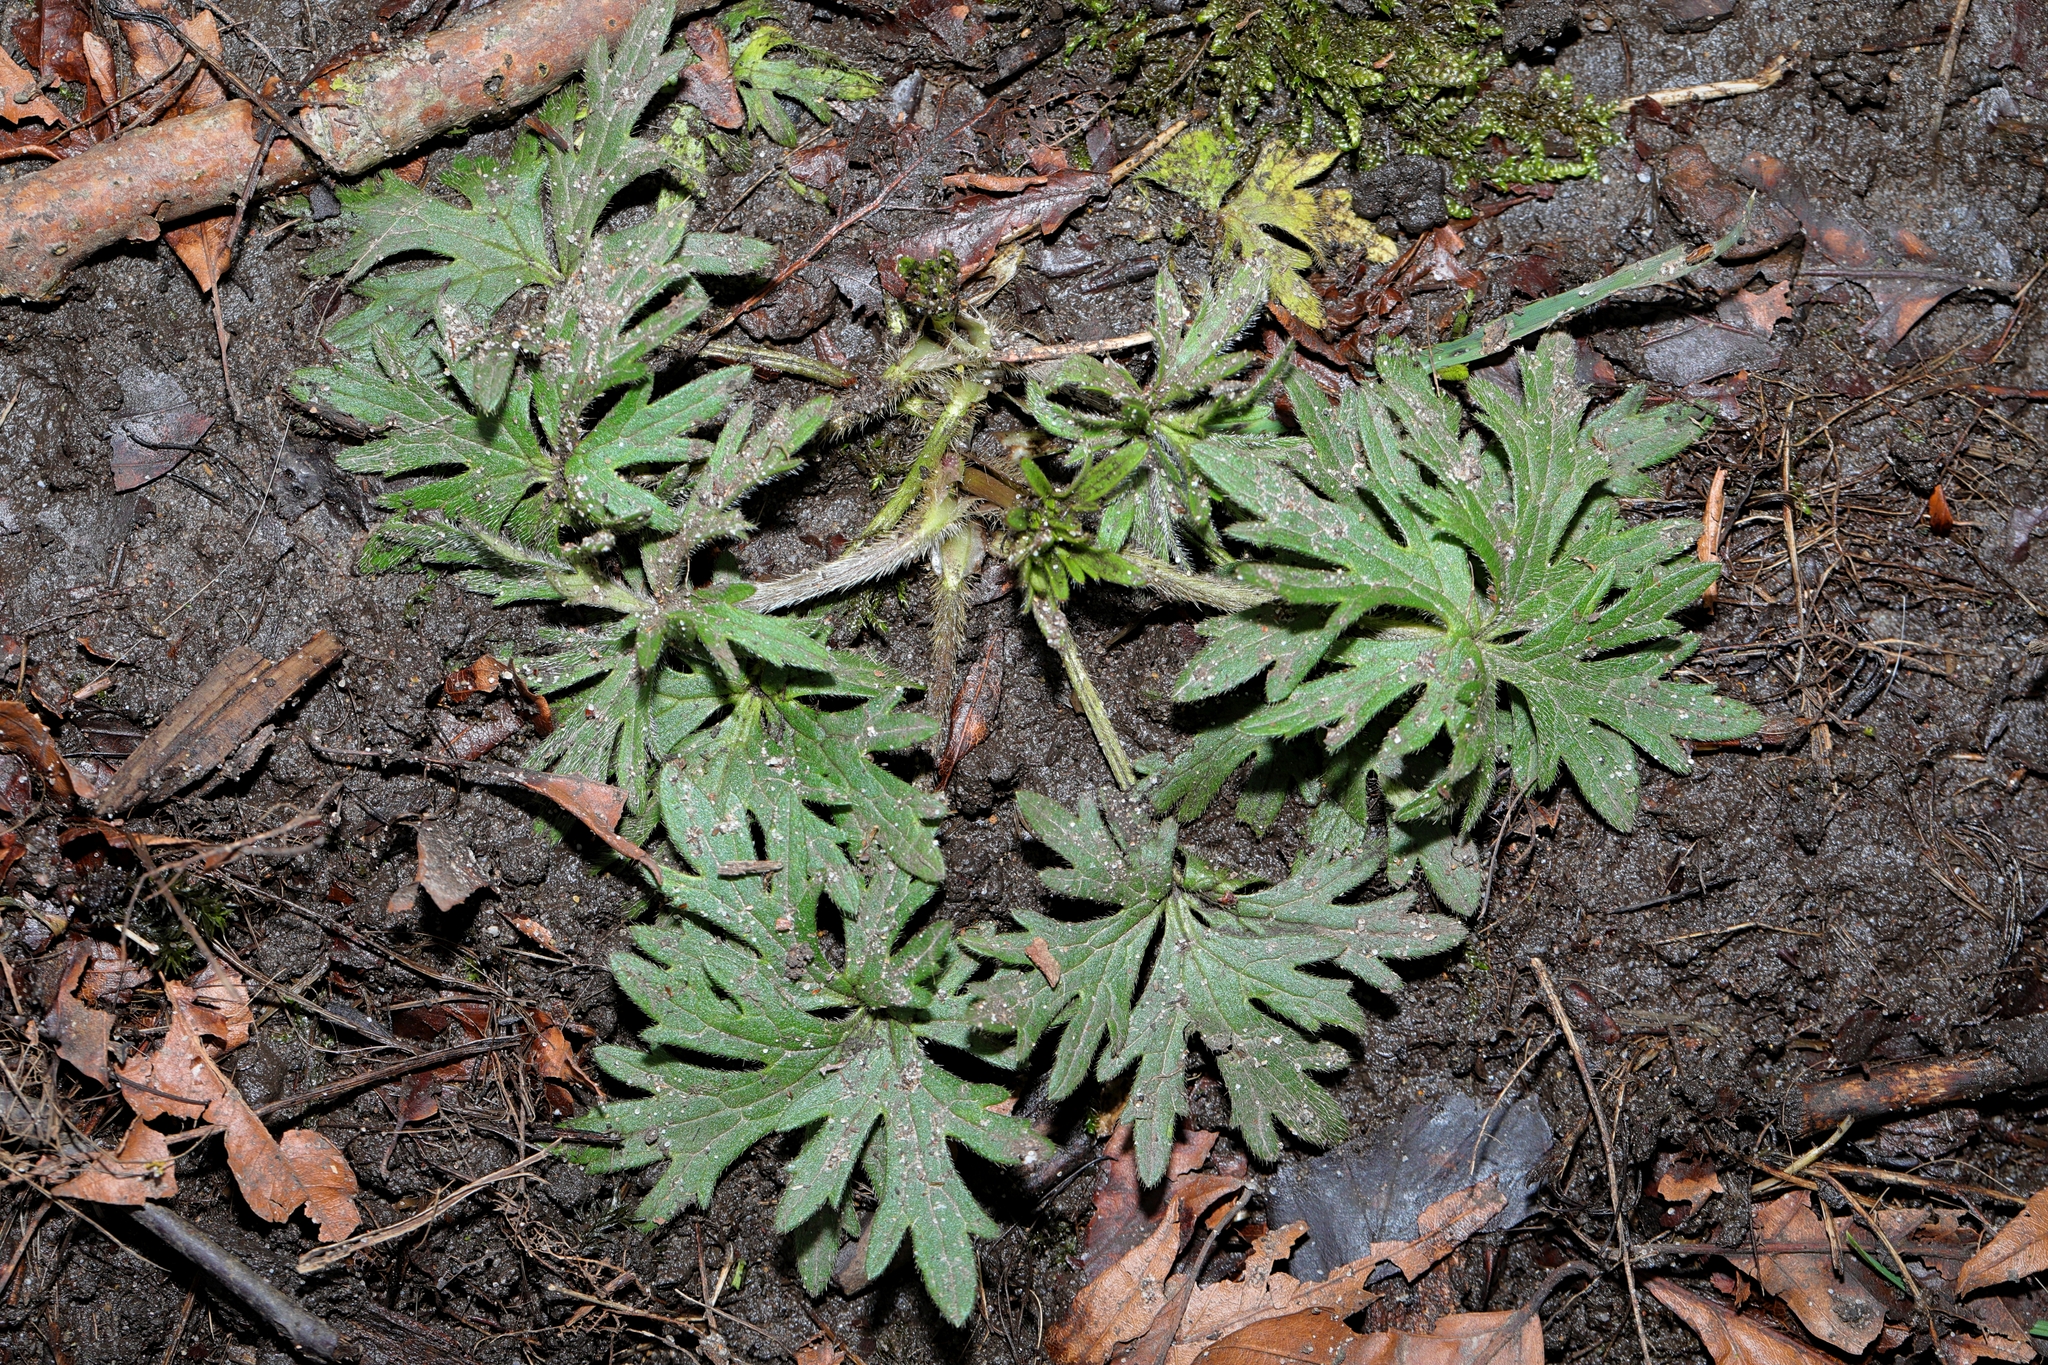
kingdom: Plantae
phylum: Tracheophyta
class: Magnoliopsida
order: Ranunculales
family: Ranunculaceae
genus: Ranunculus
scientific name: Ranunculus acris
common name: Meadow buttercup
